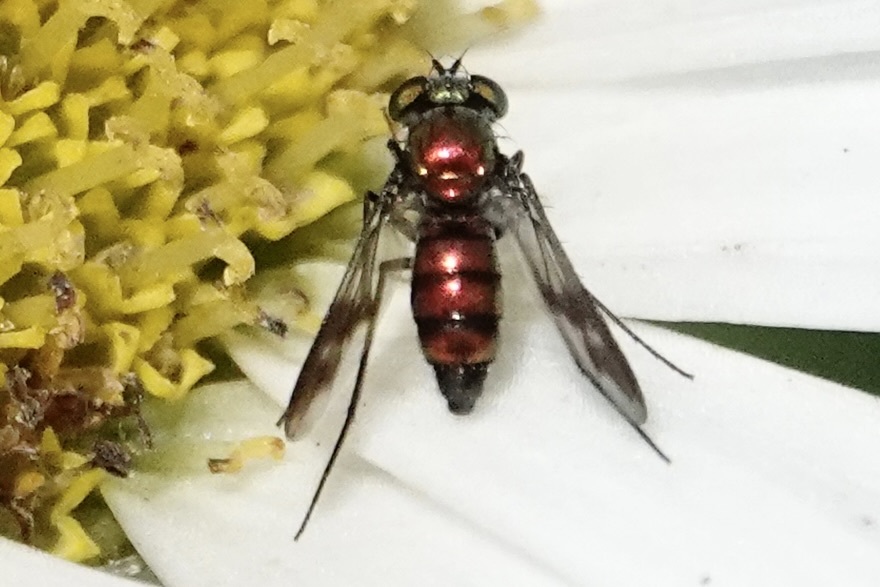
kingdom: Animalia
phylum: Arthropoda
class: Insecta
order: Diptera
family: Dolichopodidae
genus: Condylostylus
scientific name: Condylostylus patibulatus
